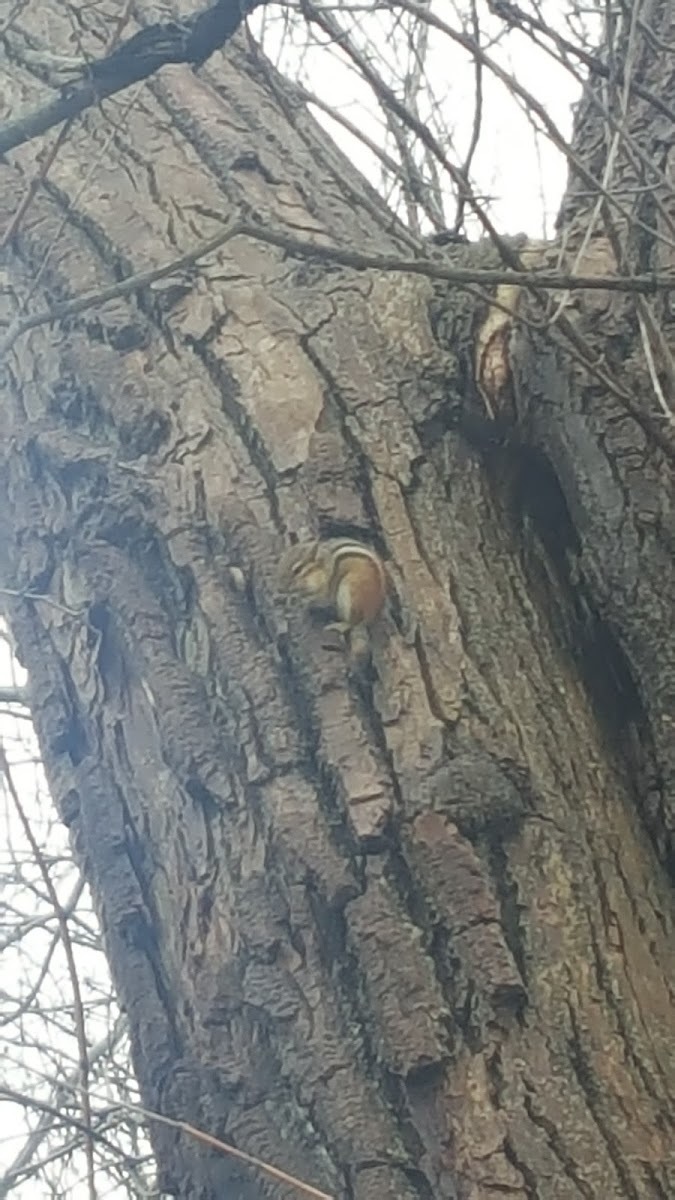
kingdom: Animalia
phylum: Chordata
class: Mammalia
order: Rodentia
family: Sciuridae
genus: Tamias
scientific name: Tamias striatus
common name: Eastern chipmunk
